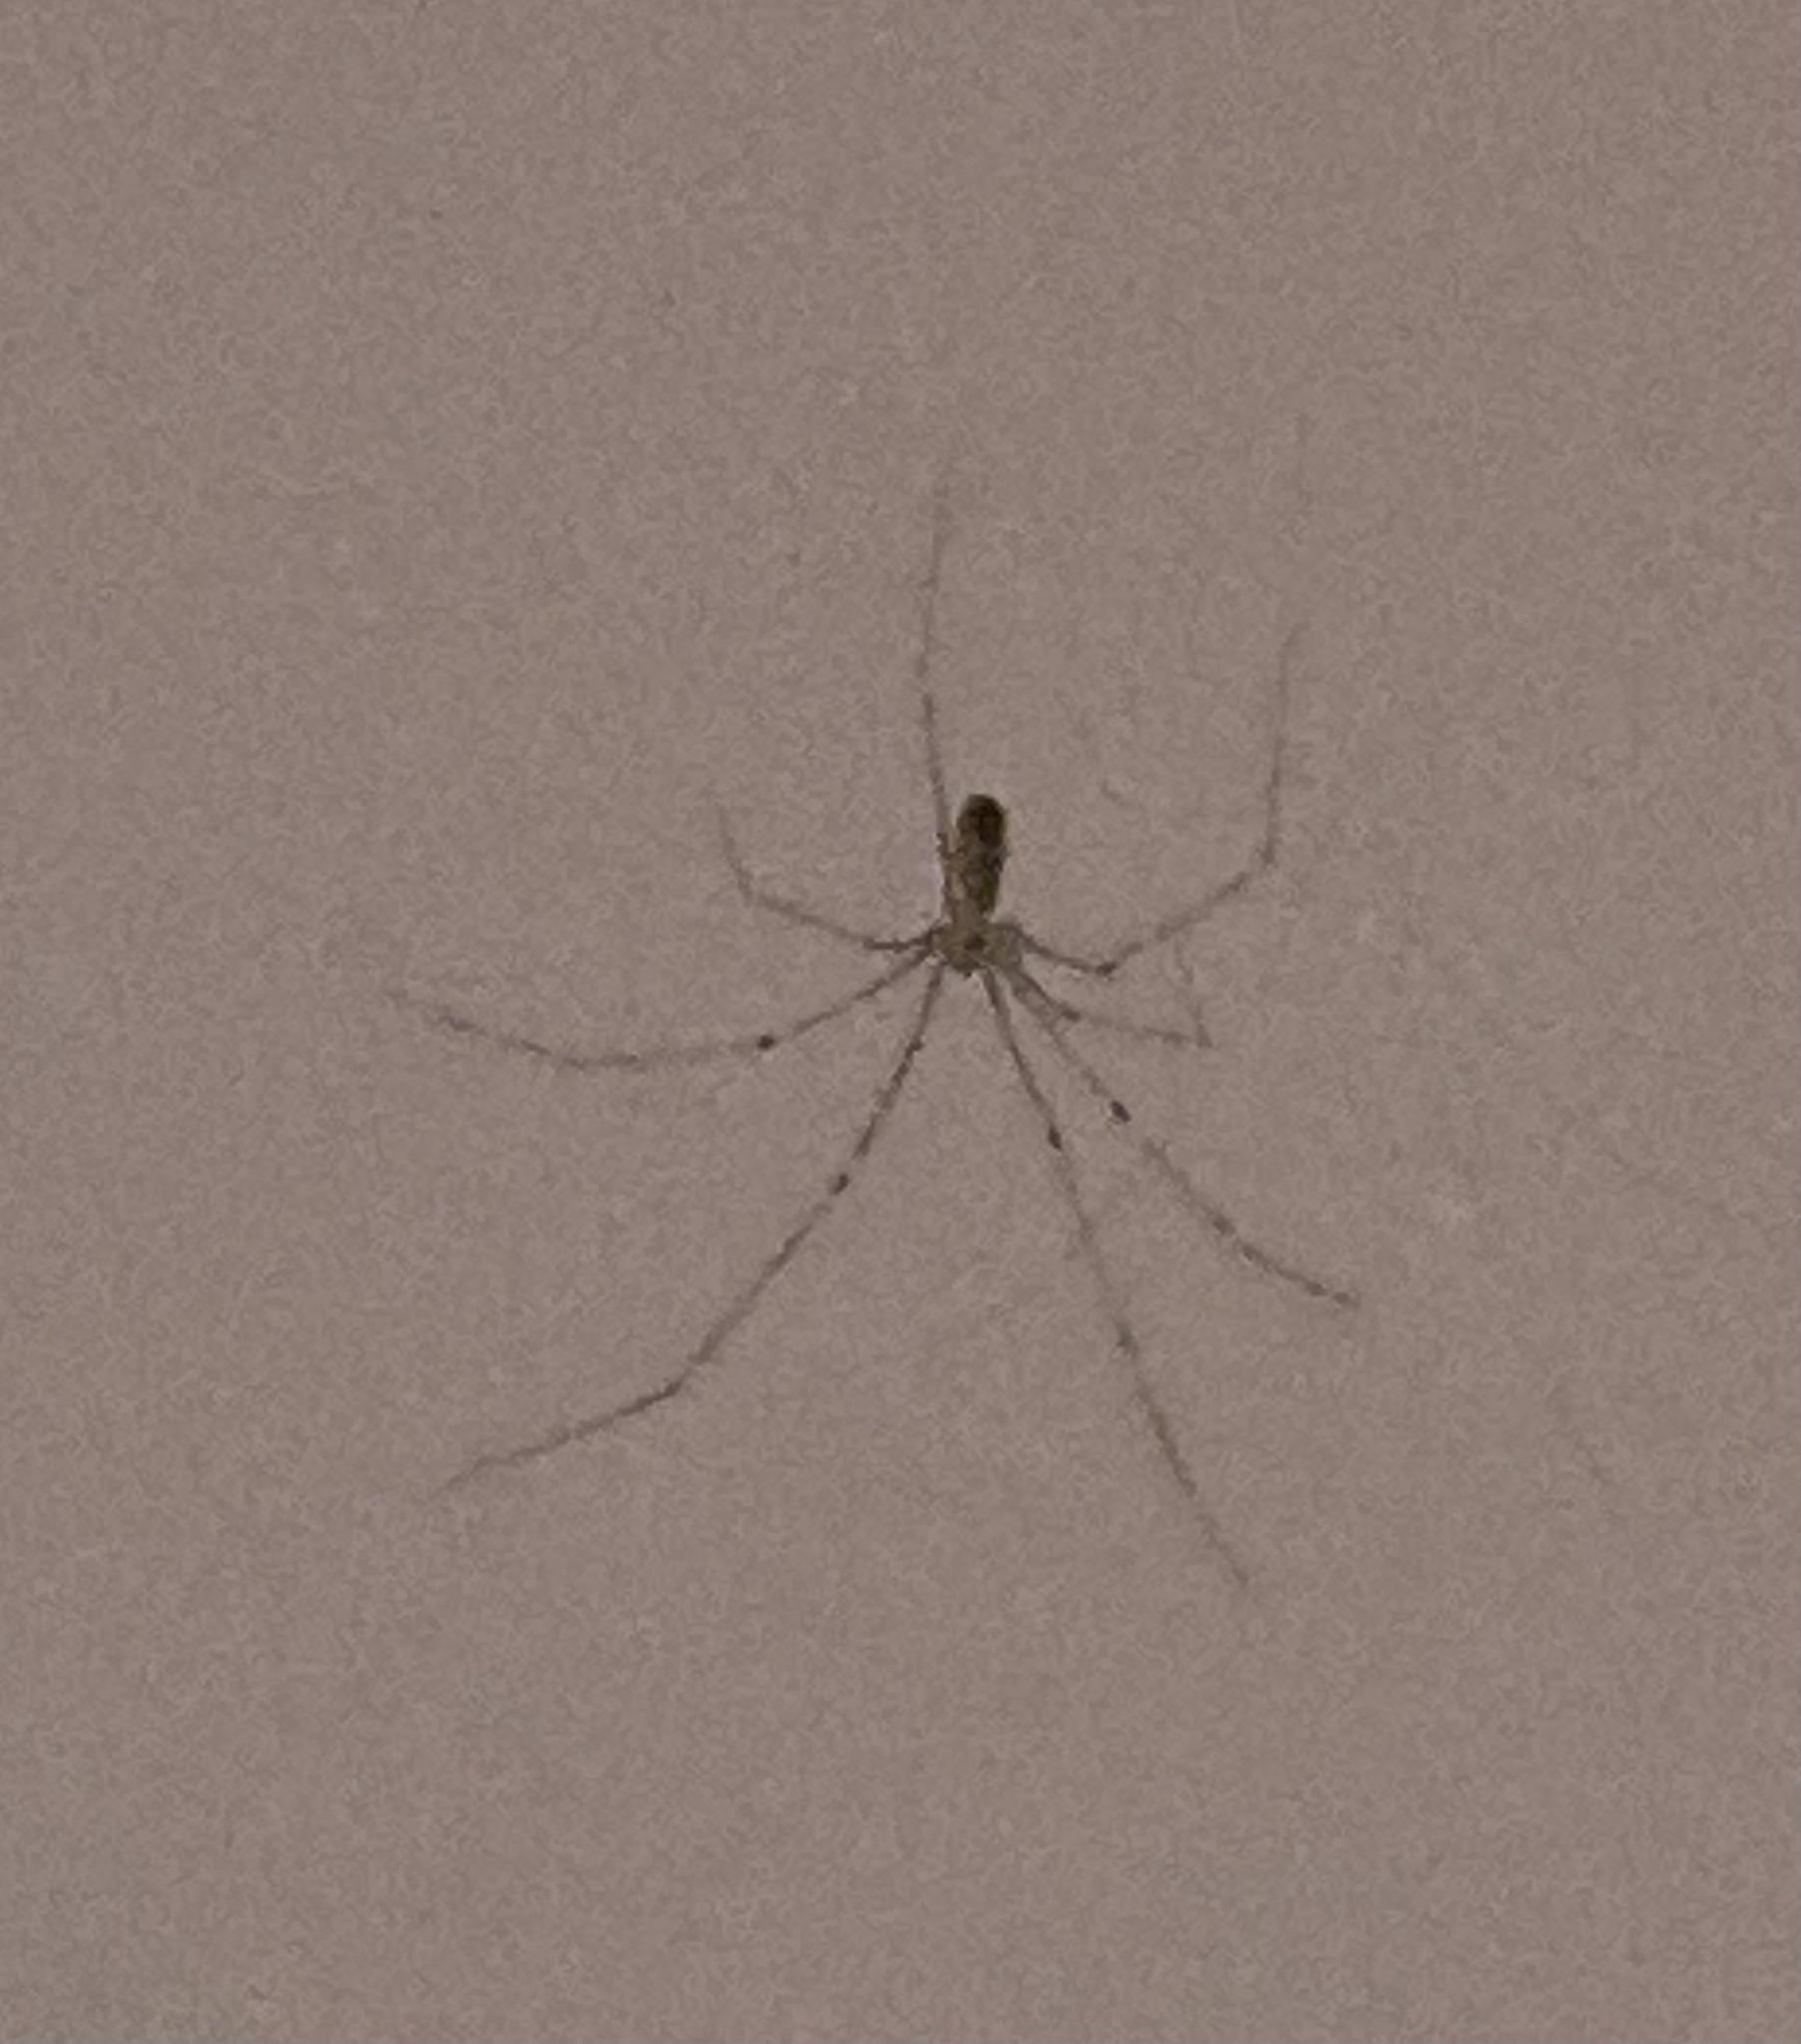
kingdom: Animalia
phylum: Arthropoda
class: Arachnida
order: Araneae
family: Pholcidae
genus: Pholcus
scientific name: Pholcus phalangioides
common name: Longbodied cellar spider
